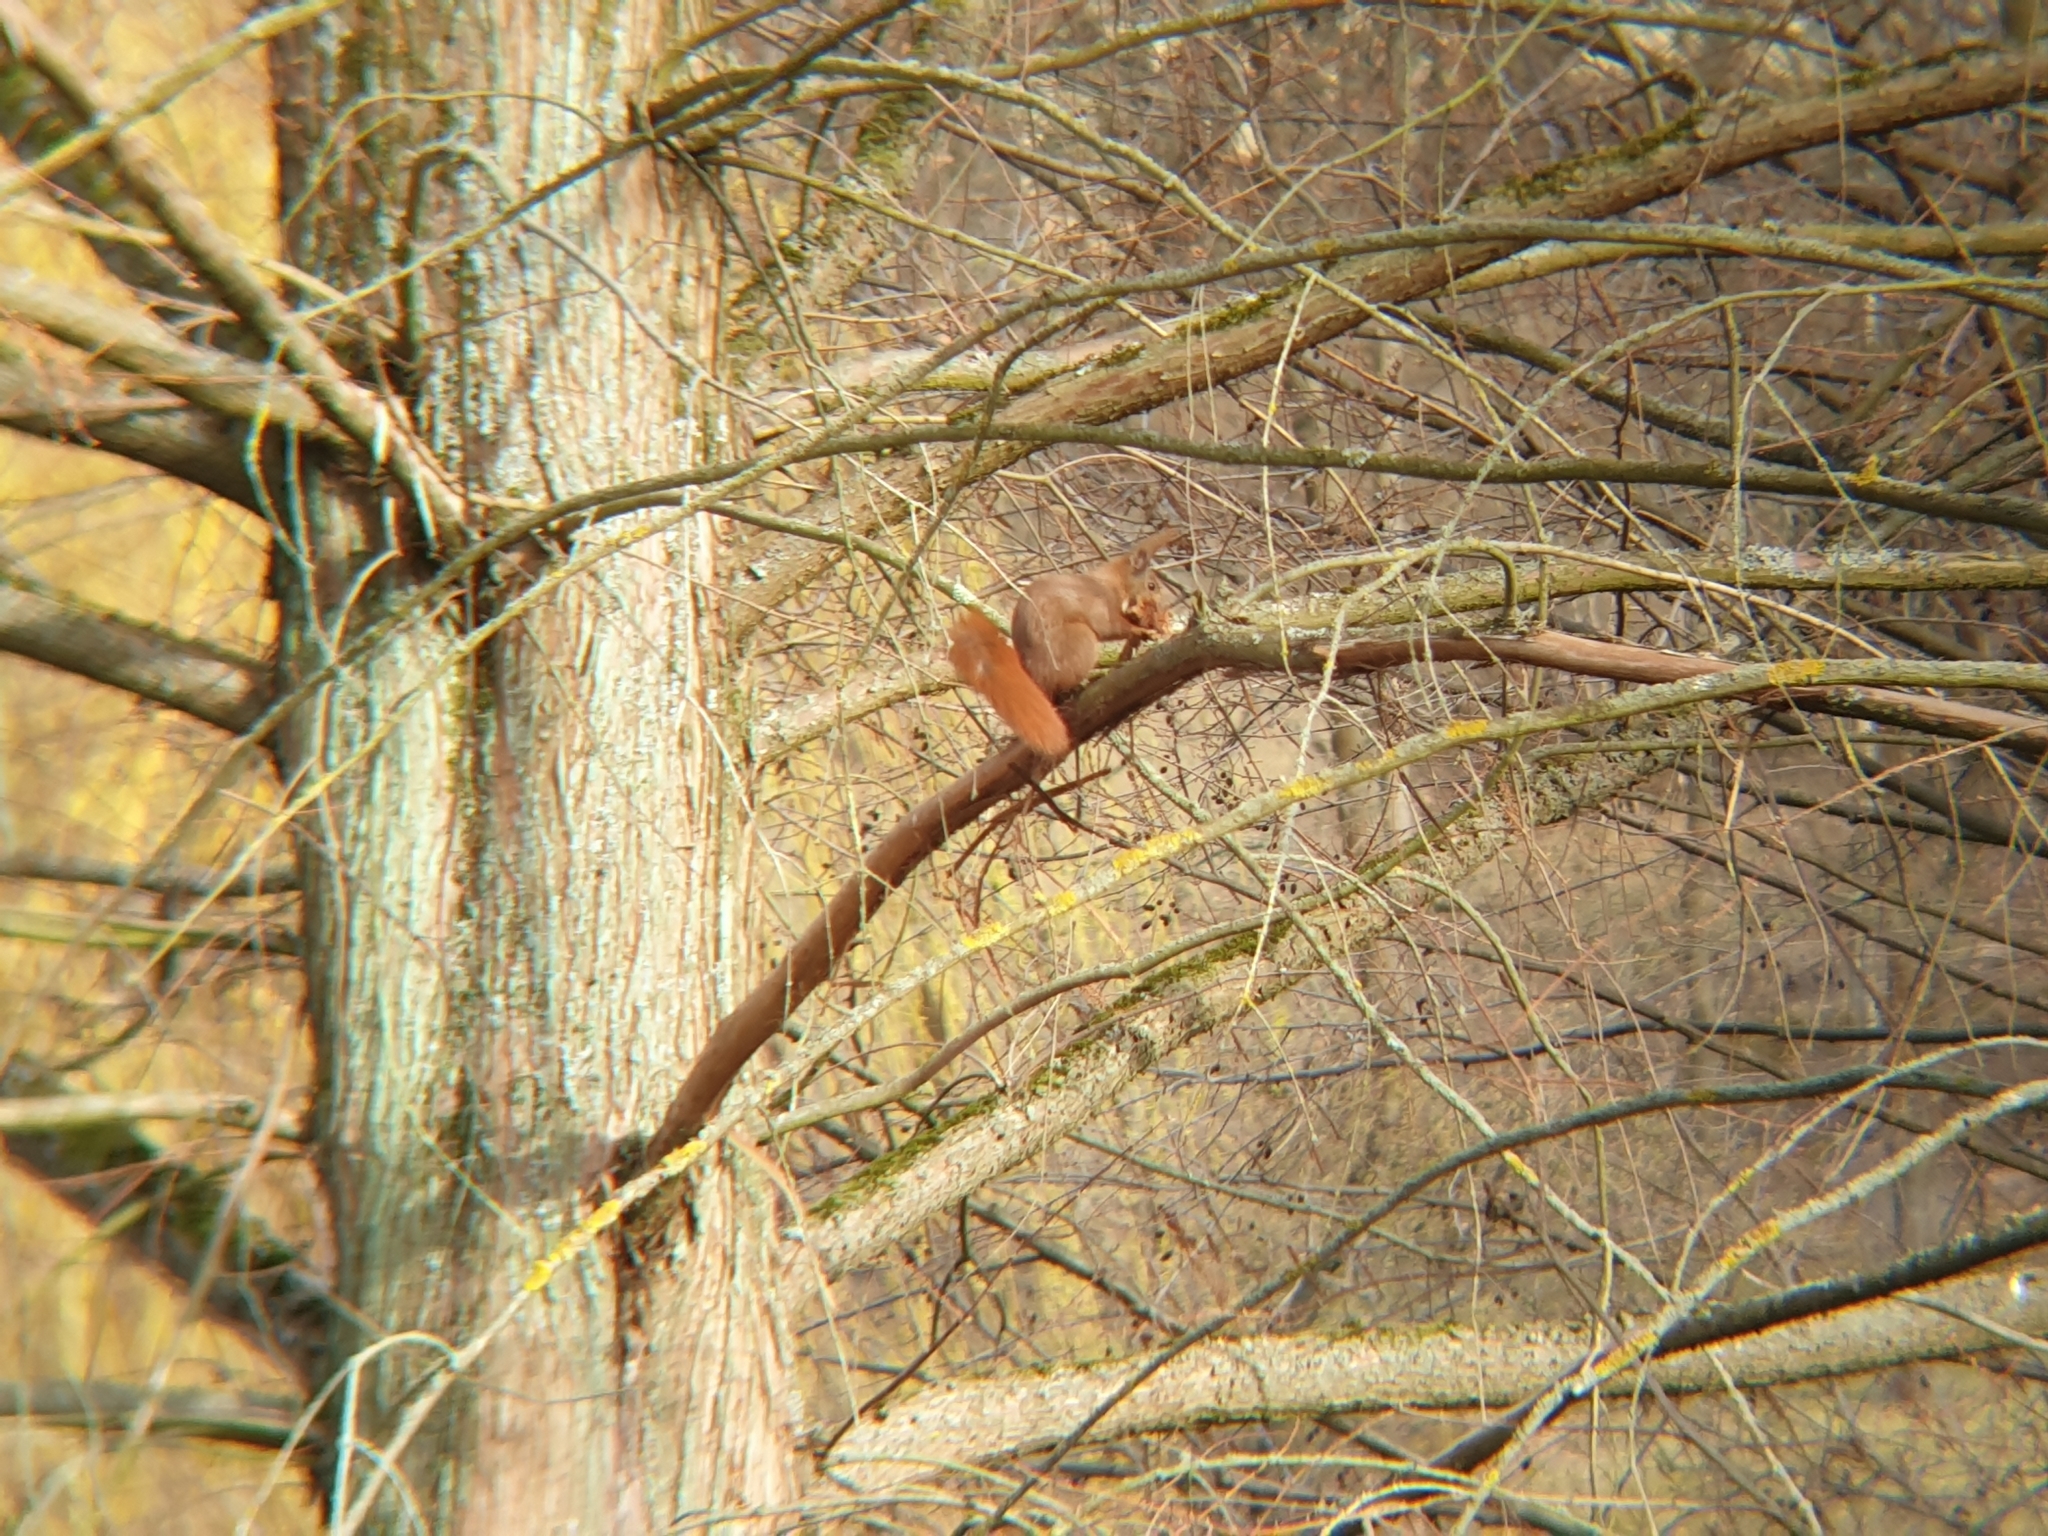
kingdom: Animalia
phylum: Chordata
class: Mammalia
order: Rodentia
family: Sciuridae
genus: Sciurus
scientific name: Sciurus vulgaris
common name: Eurasian red squirrel
